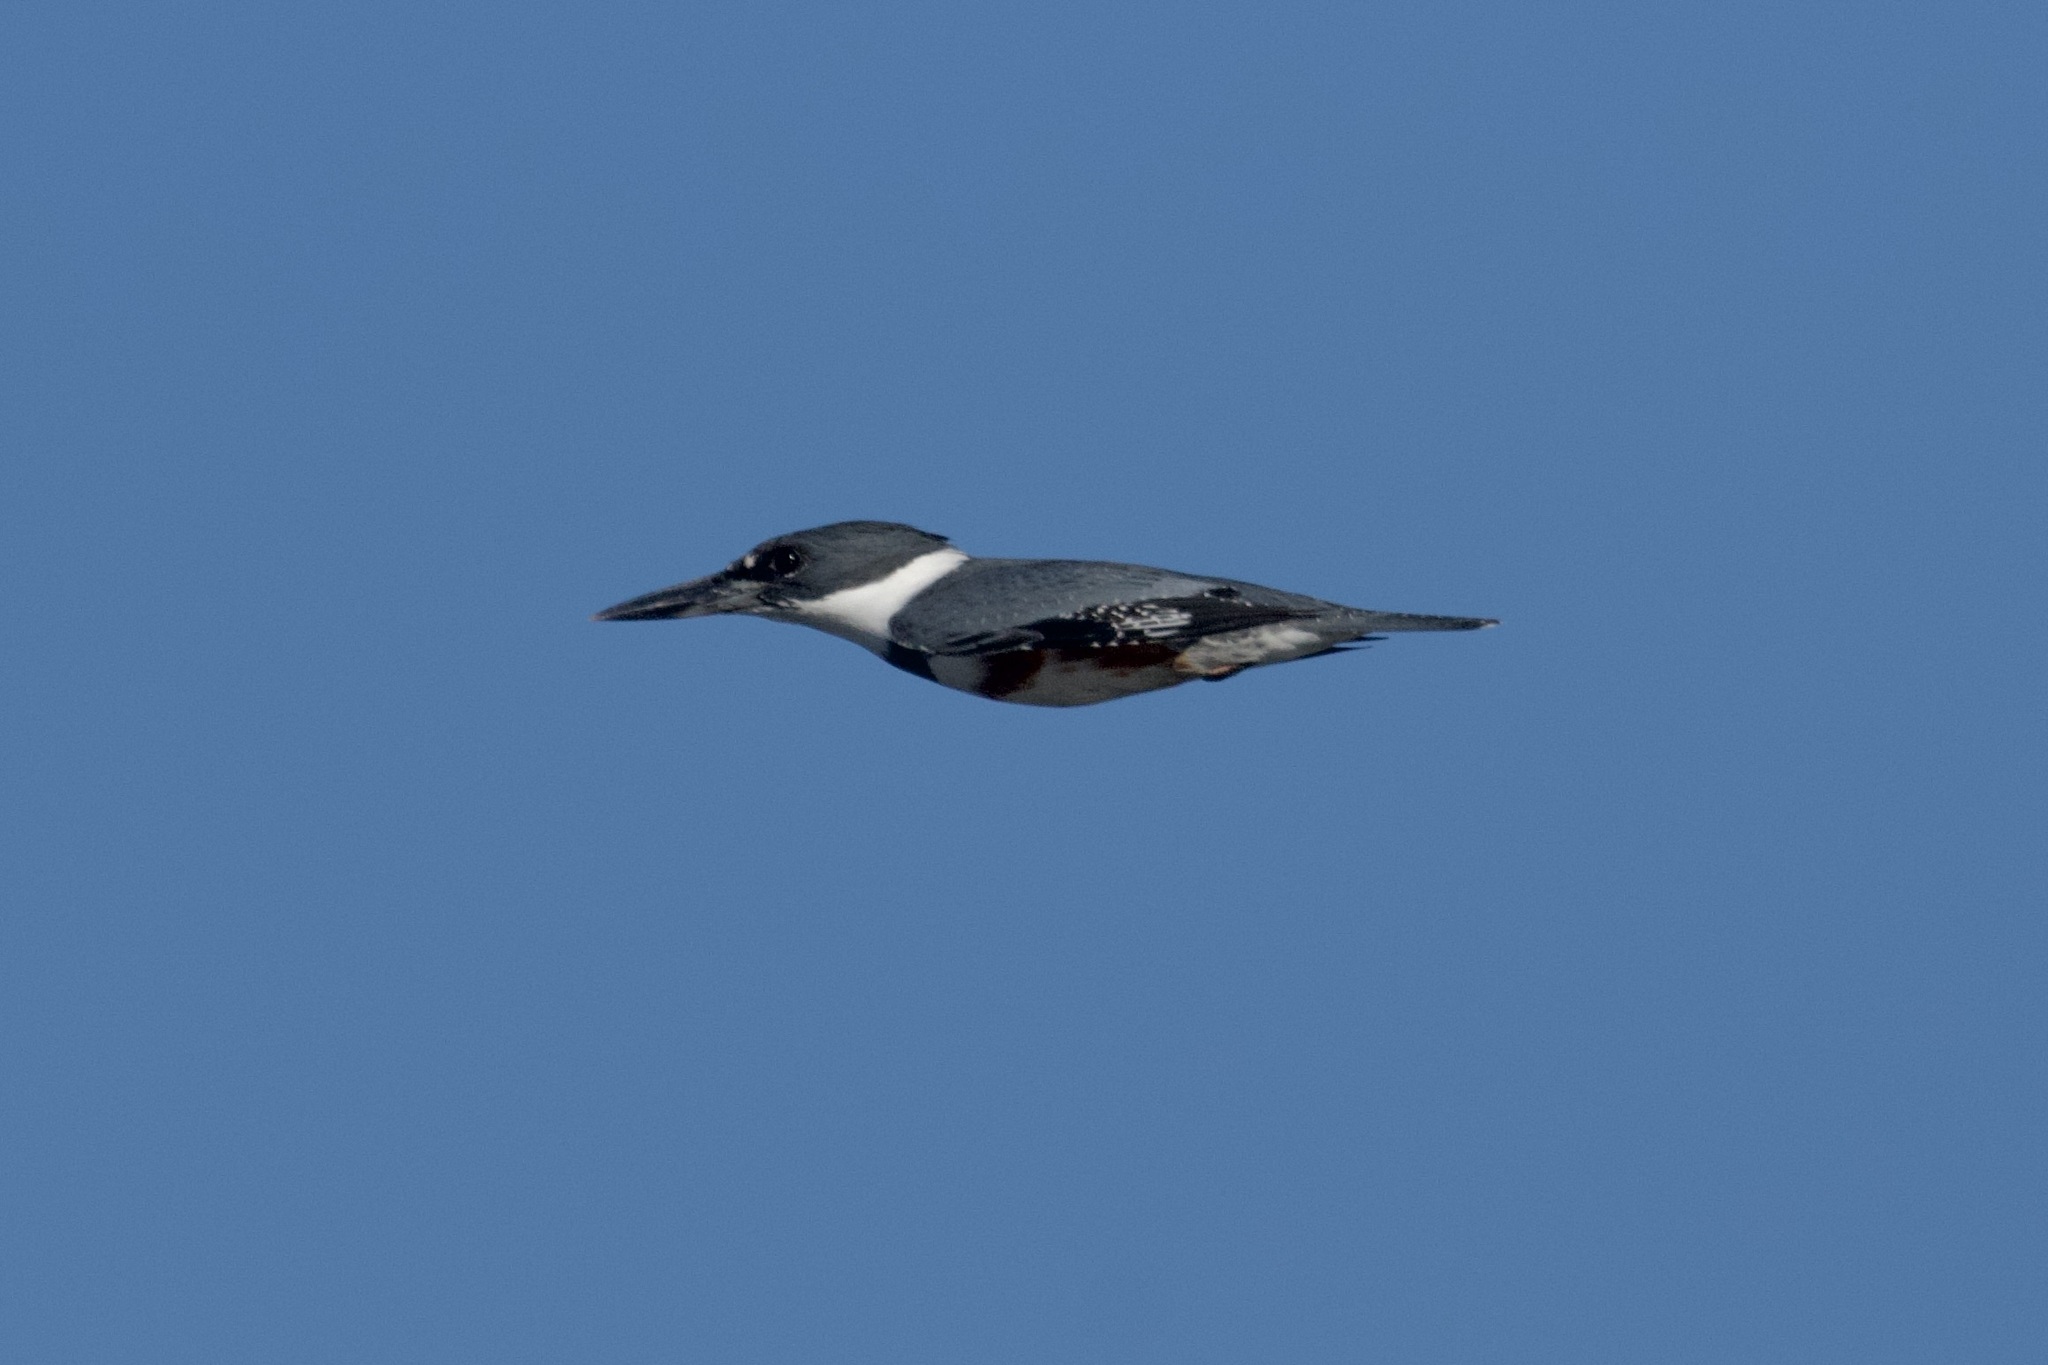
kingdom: Animalia
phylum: Chordata
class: Aves
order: Coraciiformes
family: Alcedinidae
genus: Megaceryle
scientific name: Megaceryle alcyon
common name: Belted kingfisher
